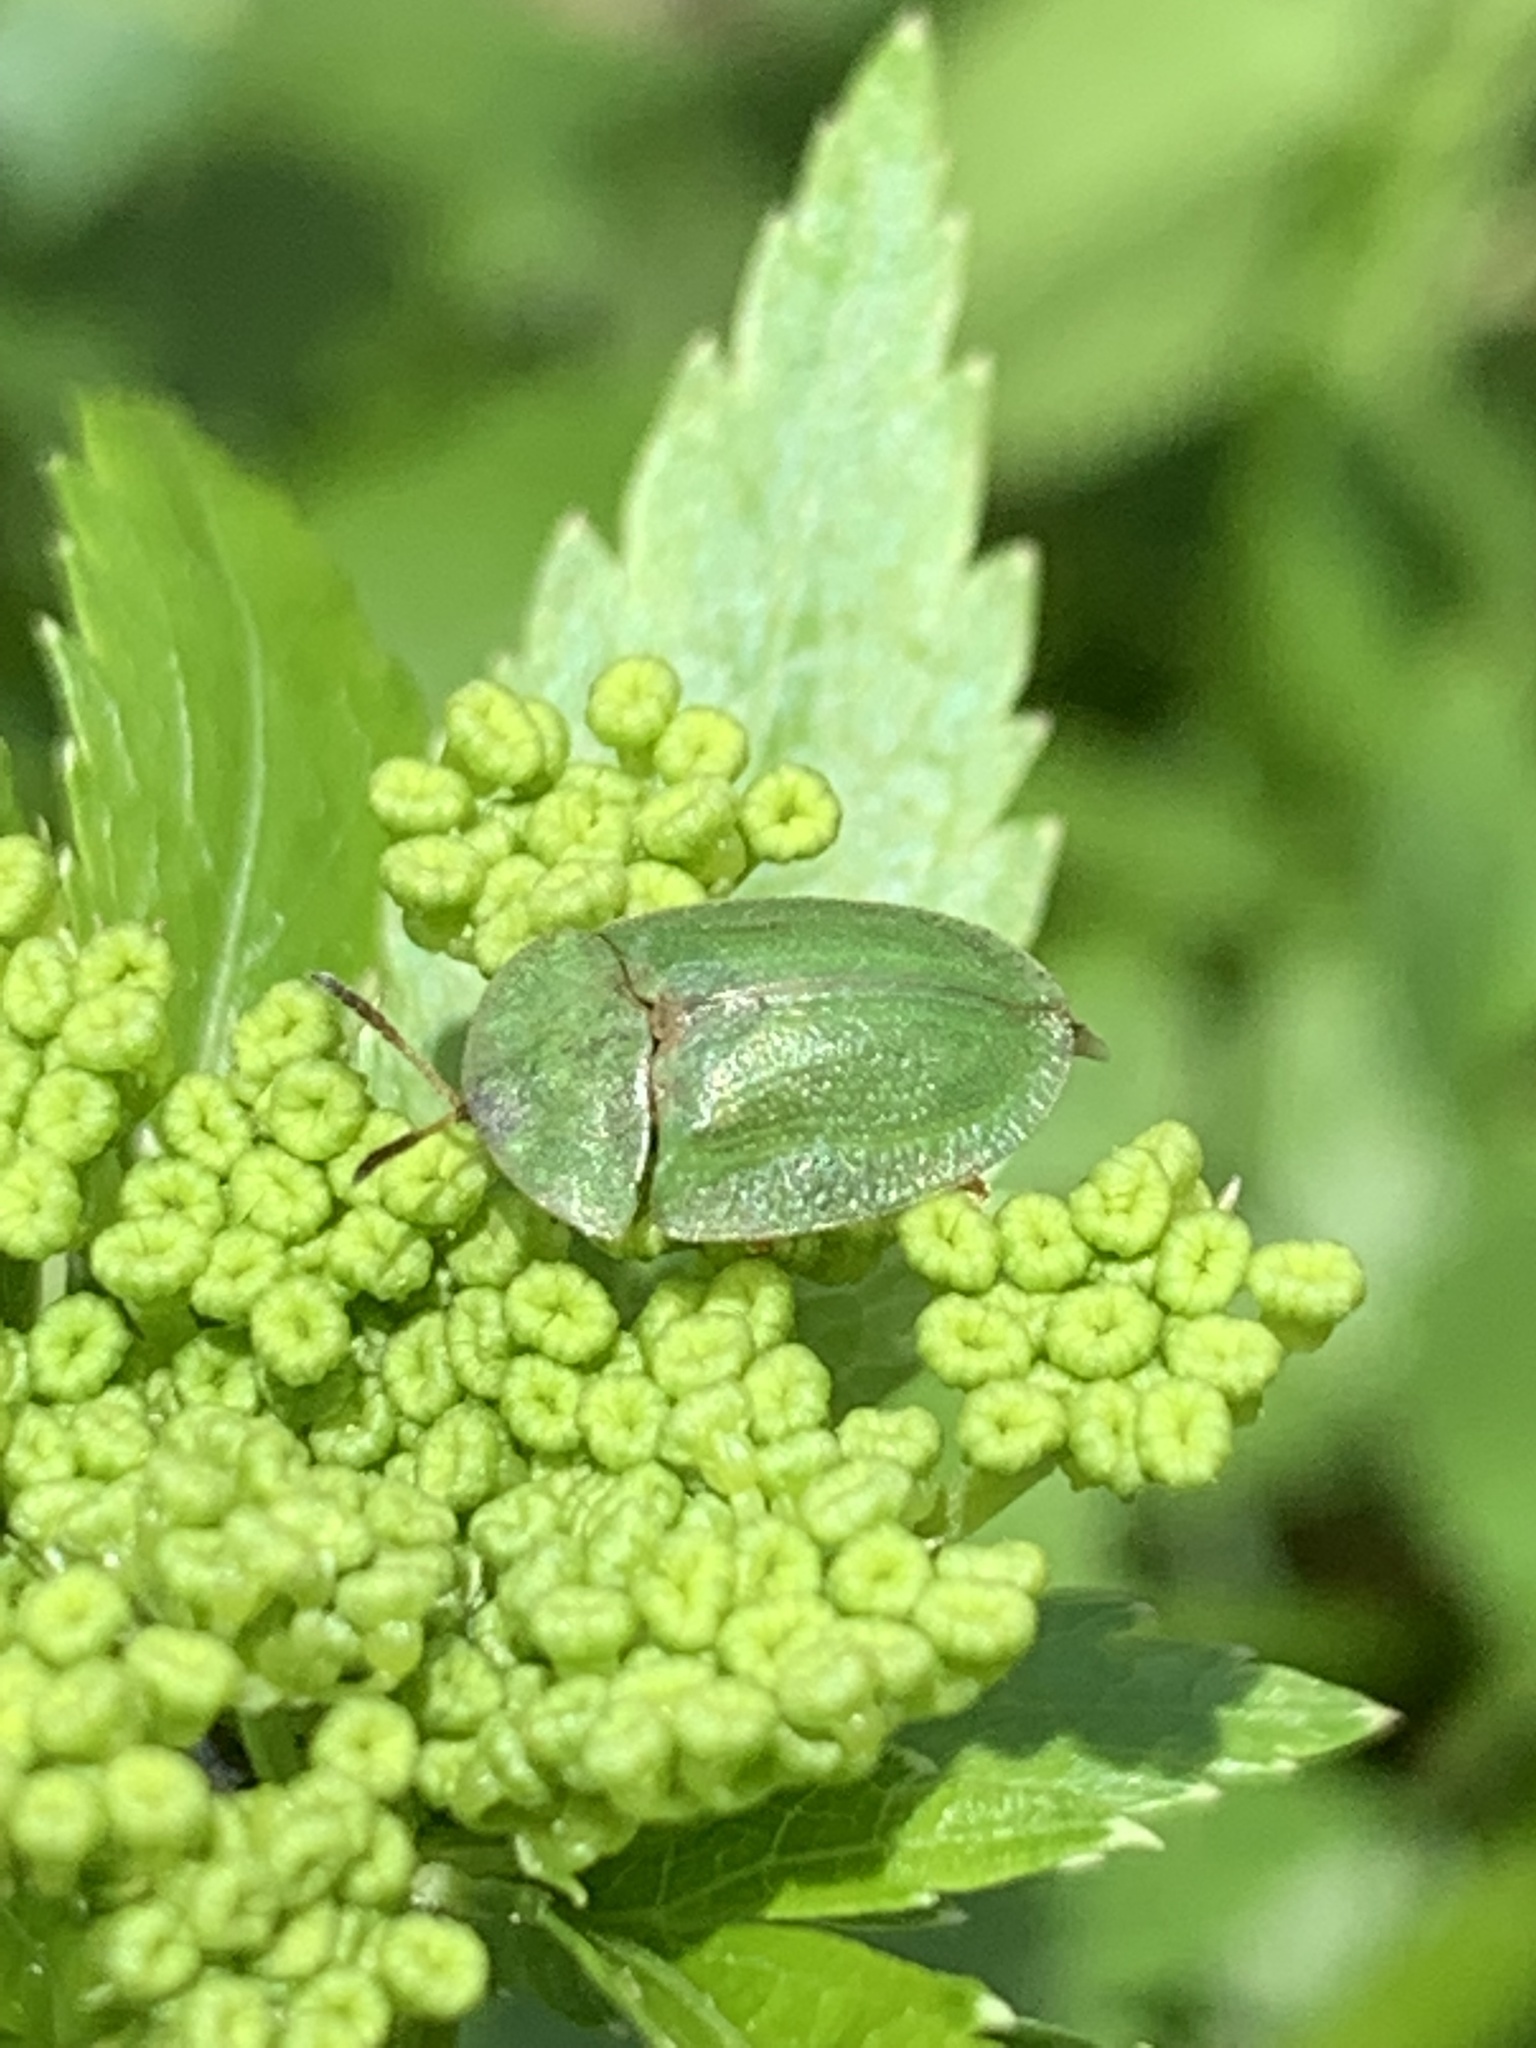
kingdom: Animalia
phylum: Arthropoda
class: Insecta
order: Coleoptera
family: Chrysomelidae
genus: Cassida
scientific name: Cassida rubiginosa
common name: Thistle tortoise beetle
